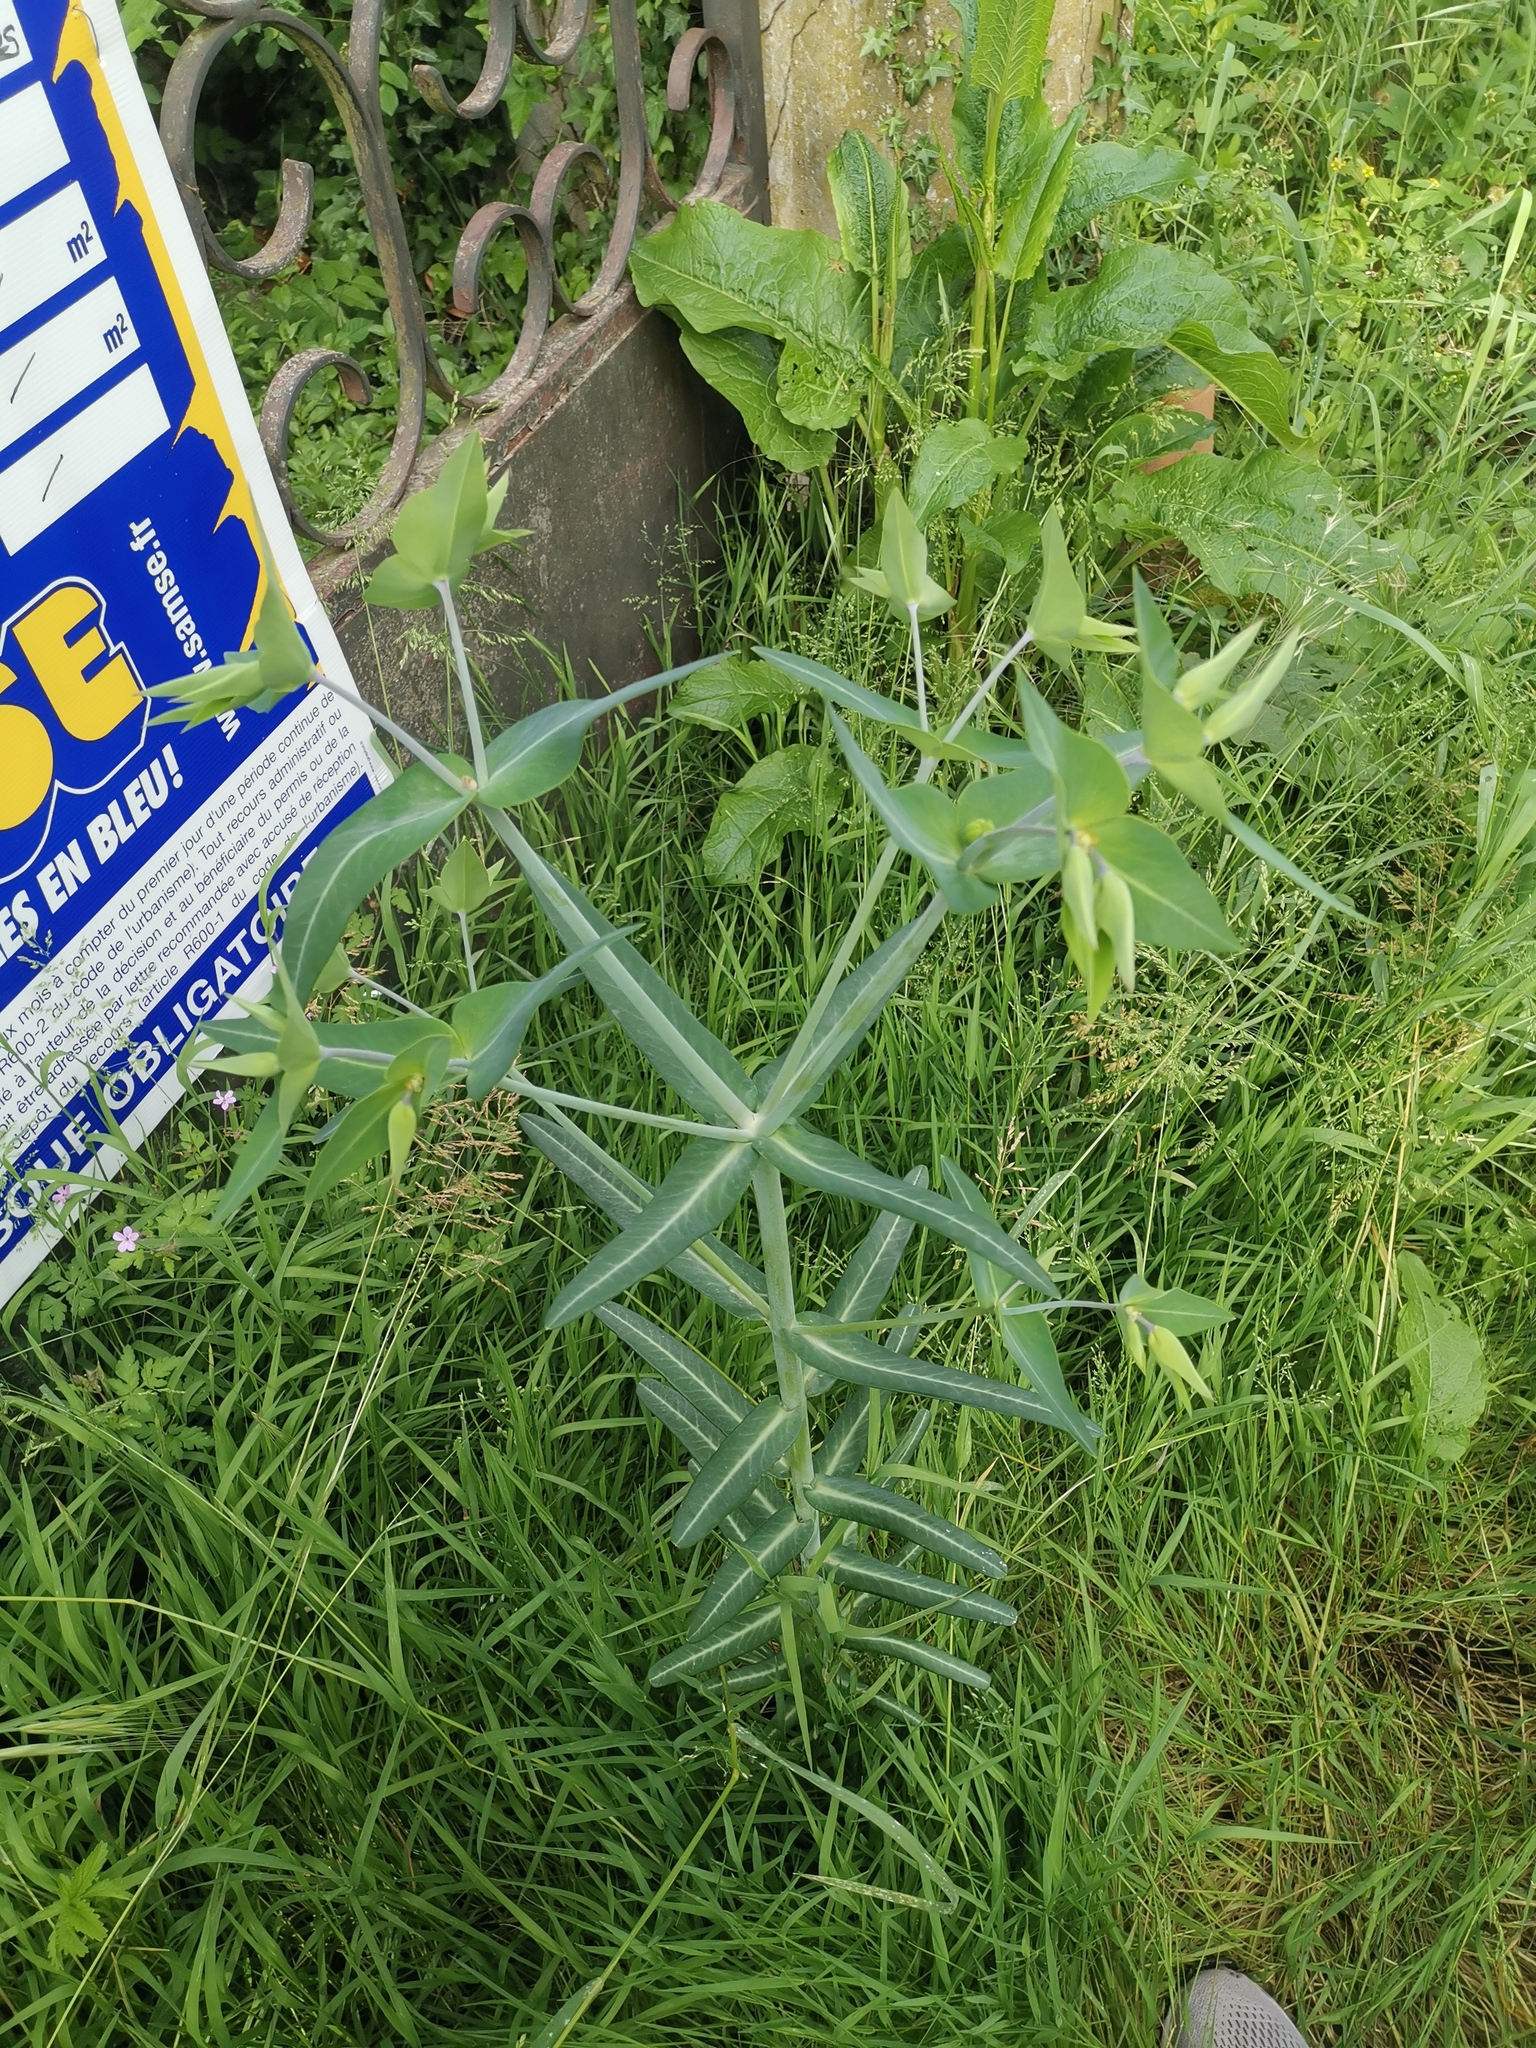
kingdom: Plantae
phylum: Tracheophyta
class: Magnoliopsida
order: Malpighiales
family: Euphorbiaceae
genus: Euphorbia
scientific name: Euphorbia lathyris
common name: Caper spurge
